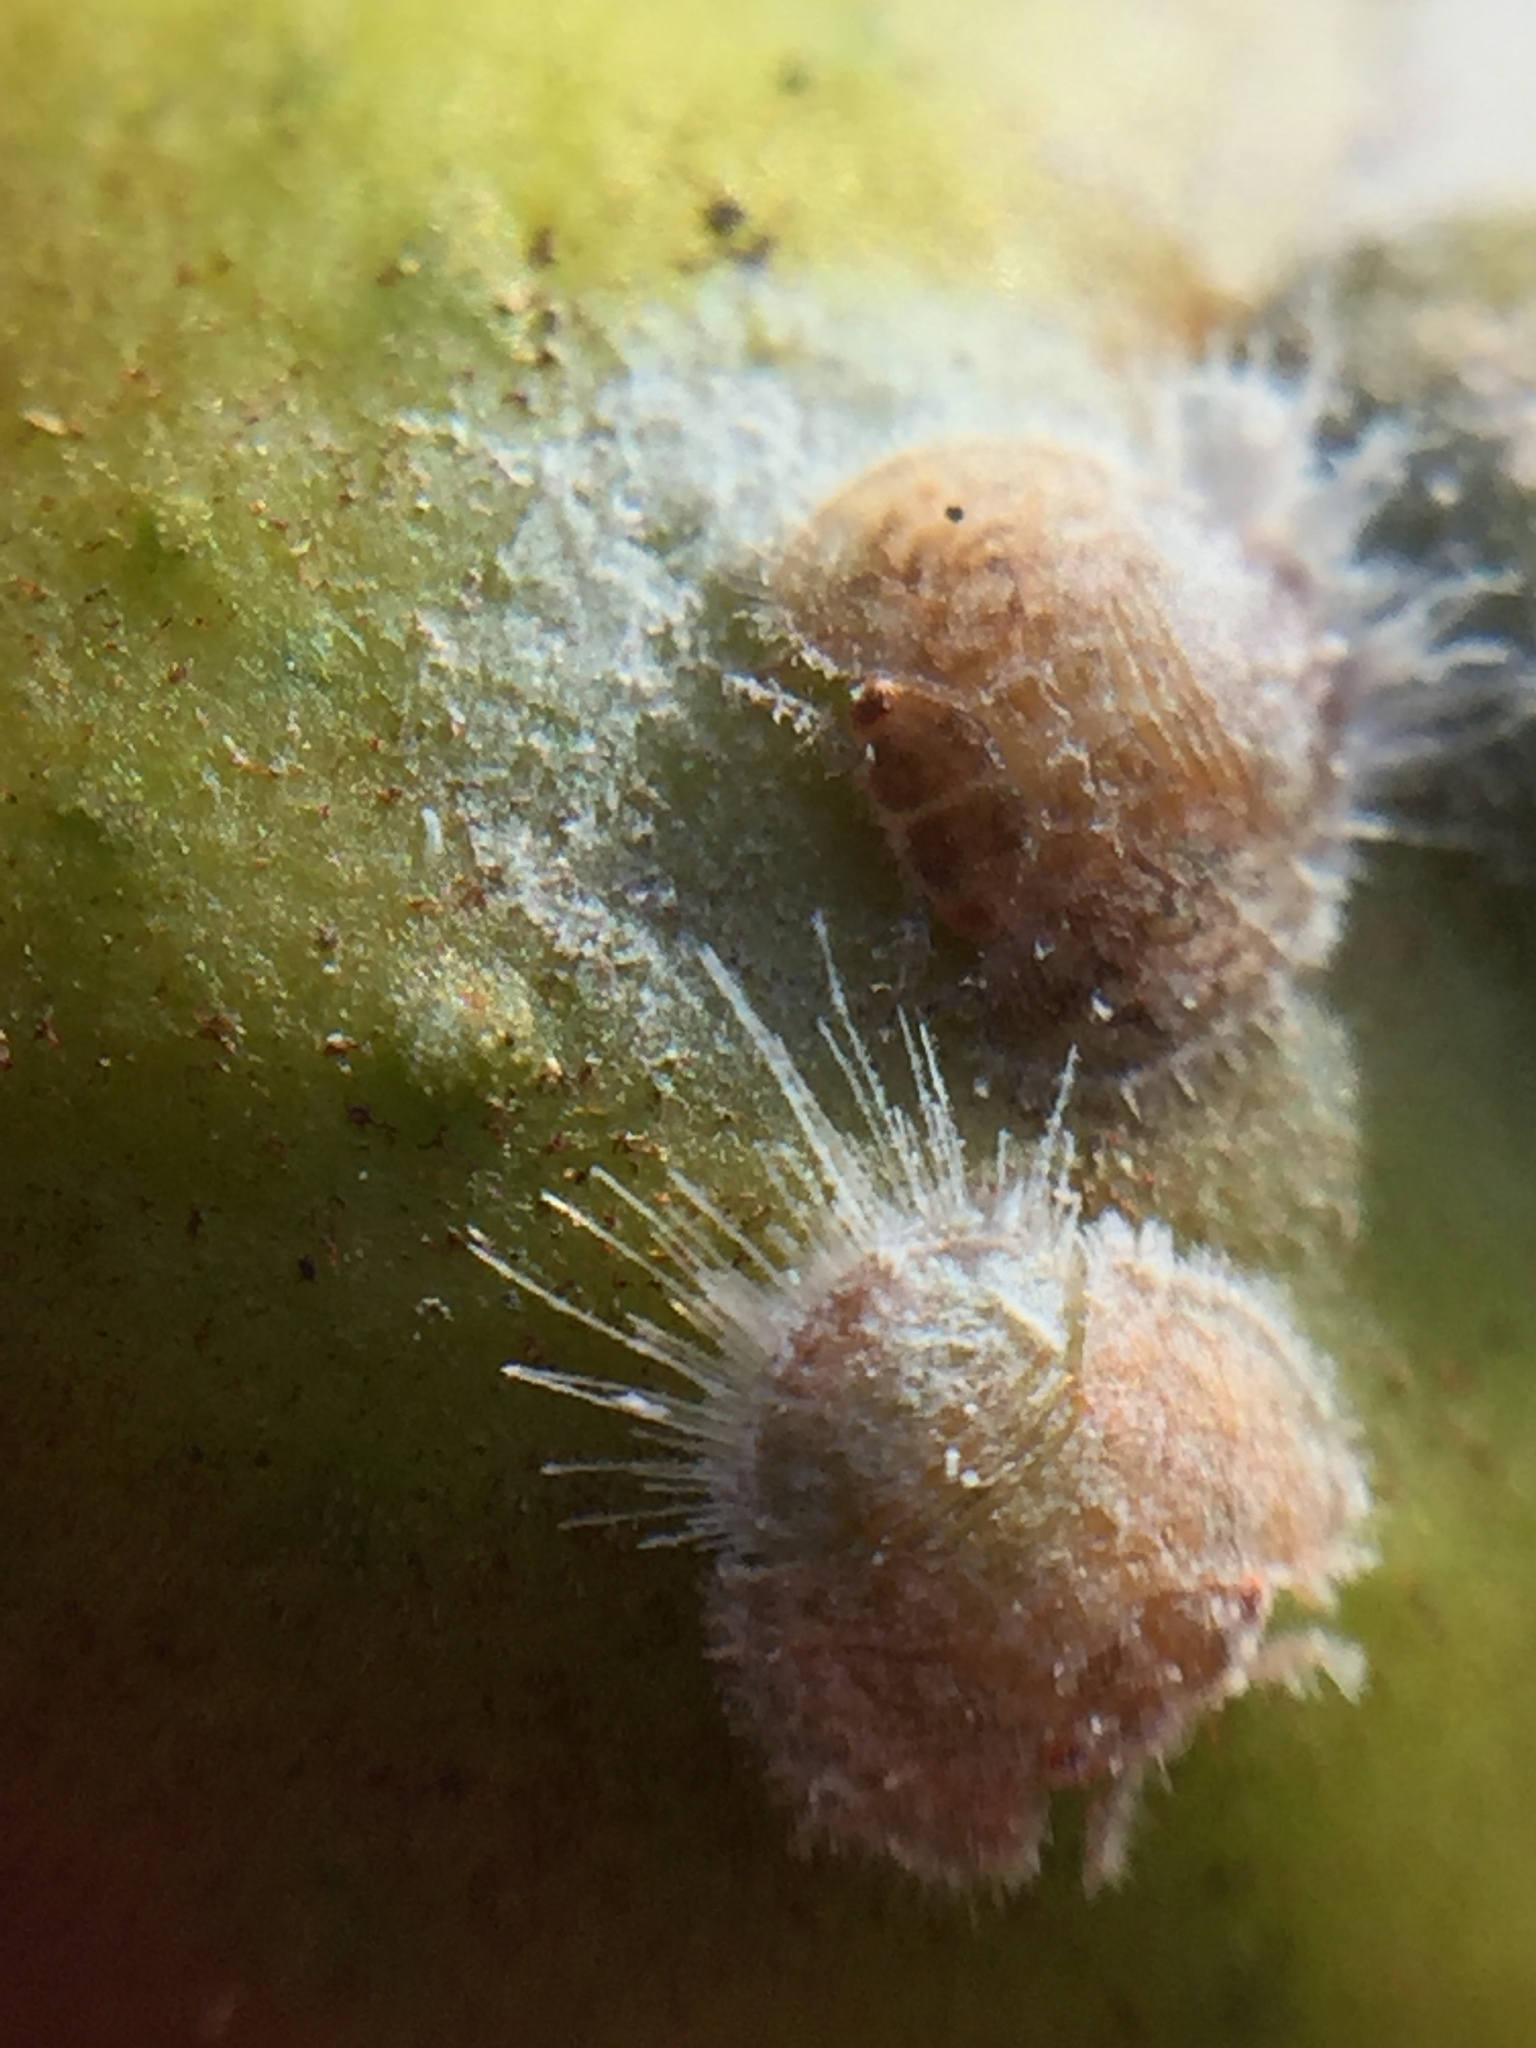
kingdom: Animalia
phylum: Arthropoda
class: Insecta
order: Hemiptera
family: Homotomidae
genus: Mycopsylla
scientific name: Mycopsylla obliqua
